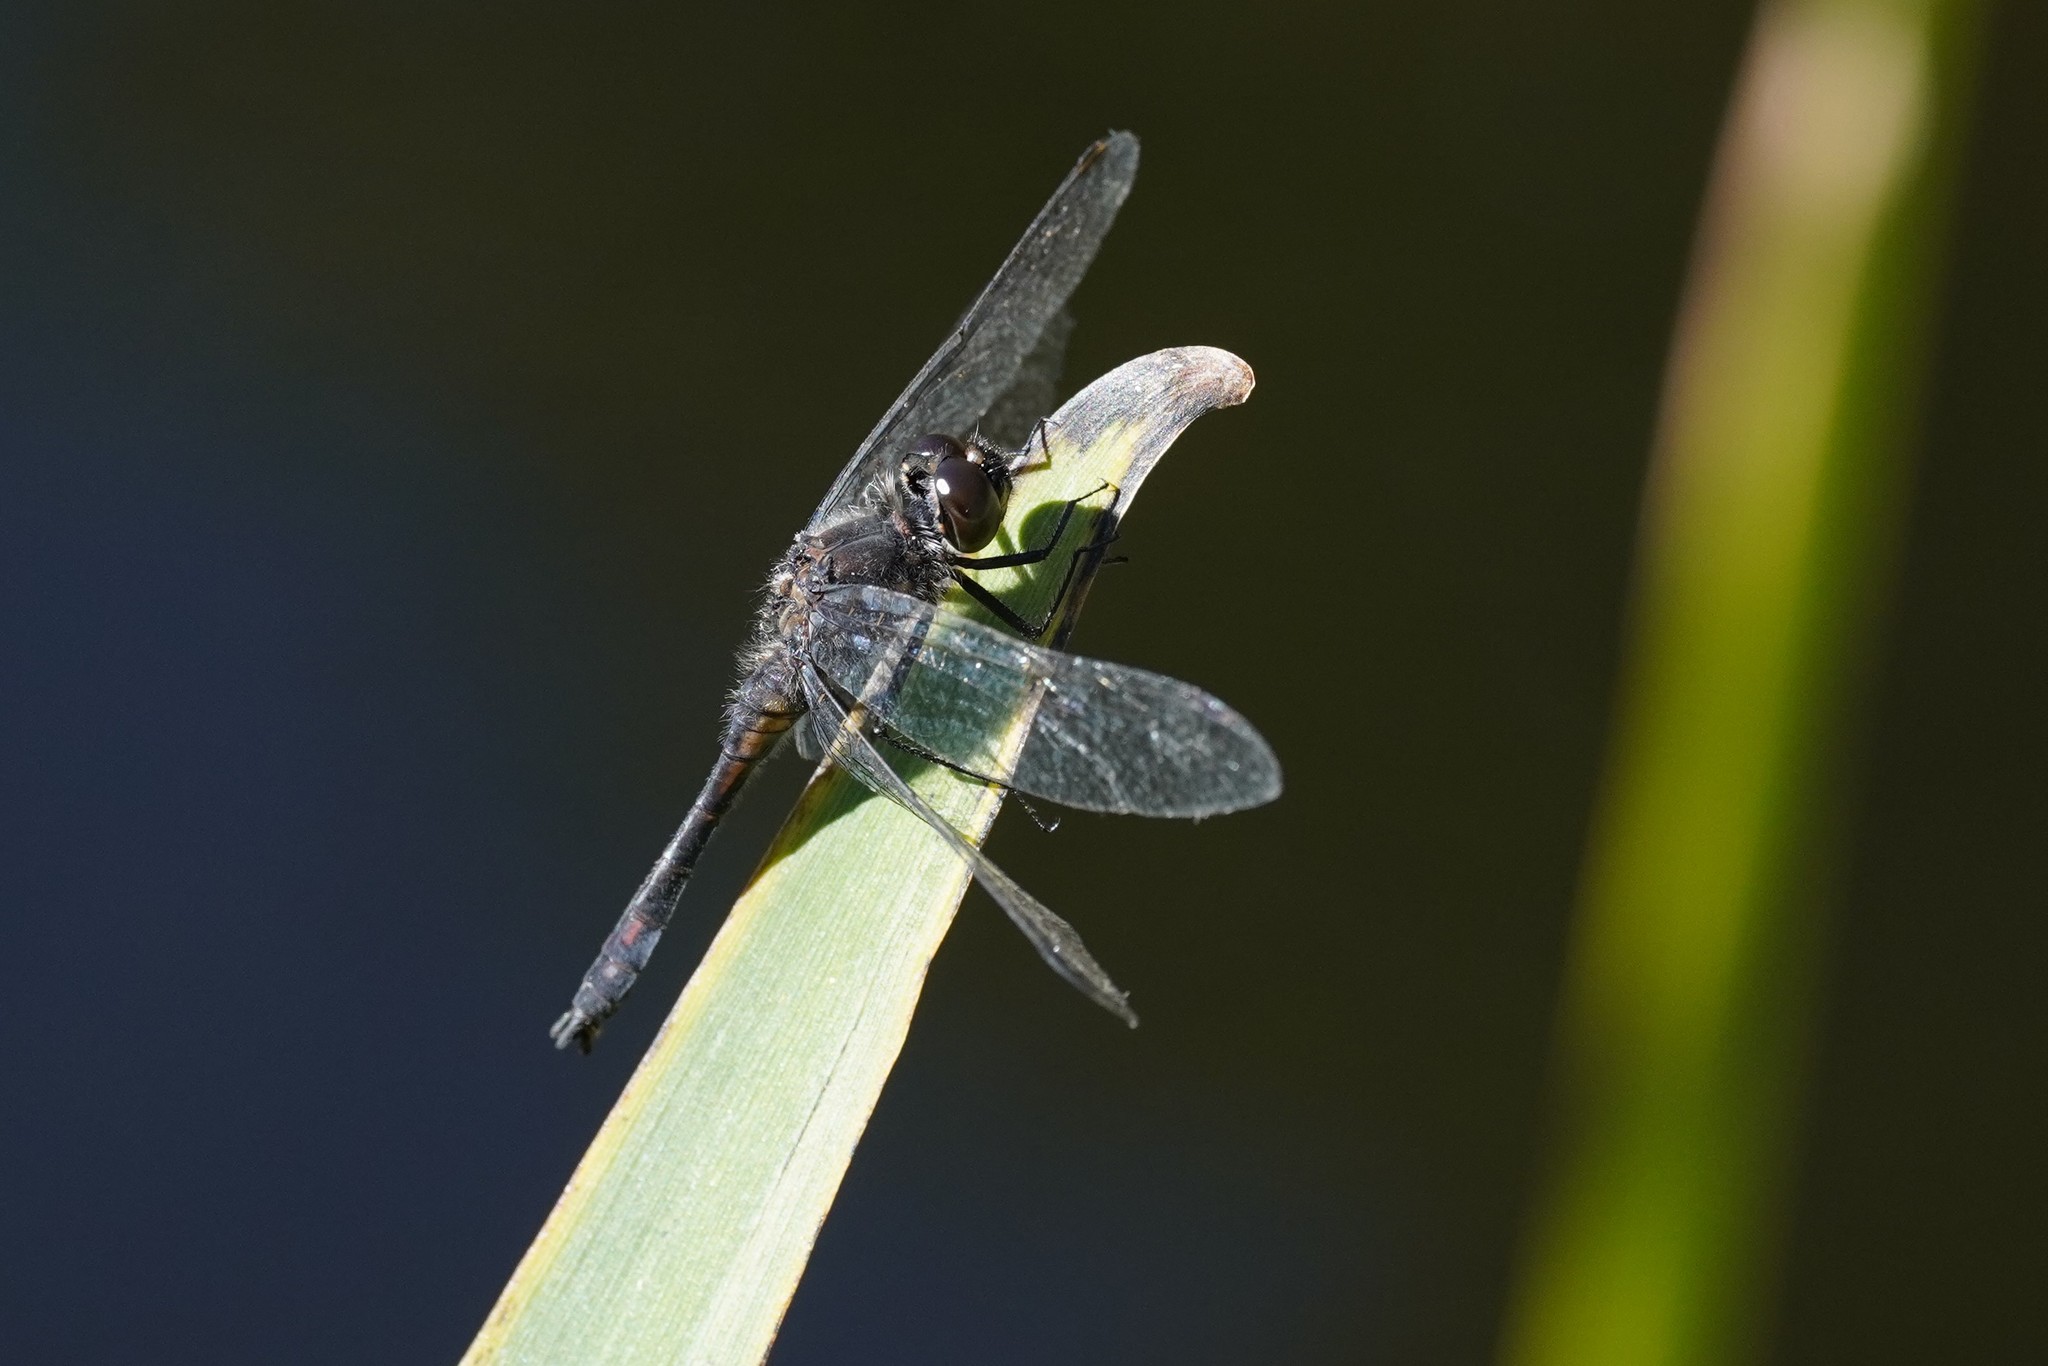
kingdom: Animalia
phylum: Arthropoda
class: Insecta
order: Odonata
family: Libellulidae
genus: Sympetrum
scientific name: Sympetrum danae
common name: Black darter
